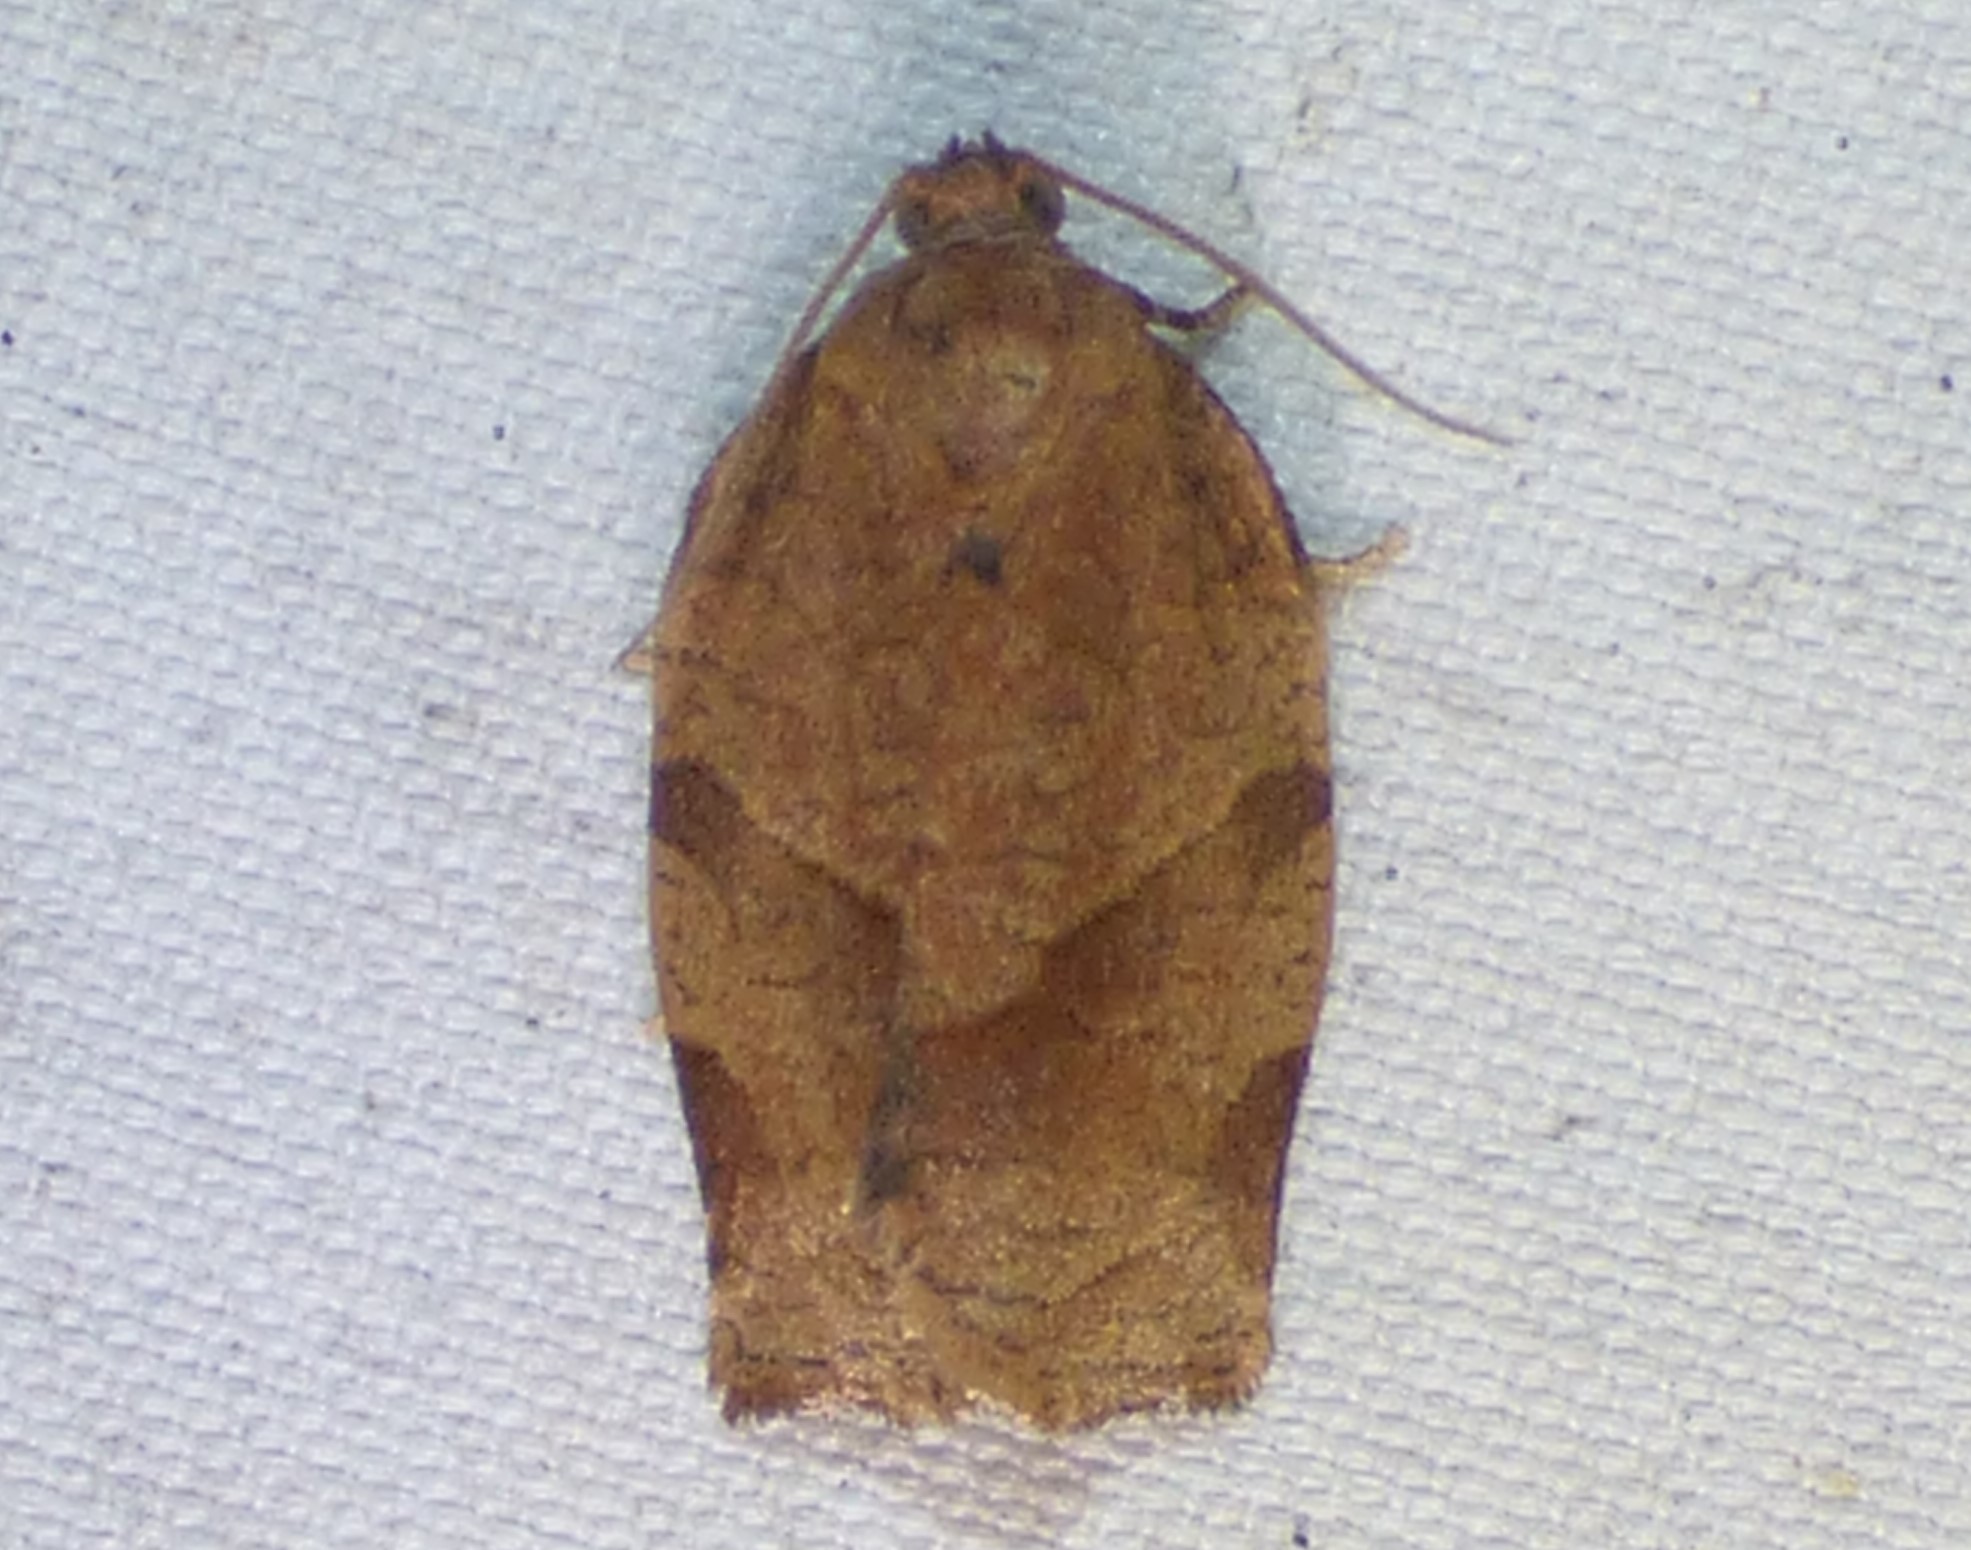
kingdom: Animalia
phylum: Arthropoda
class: Insecta
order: Lepidoptera
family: Tortricidae
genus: Choristoneura
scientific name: Choristoneura rosaceana
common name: Oblique-banded leafroller moth
